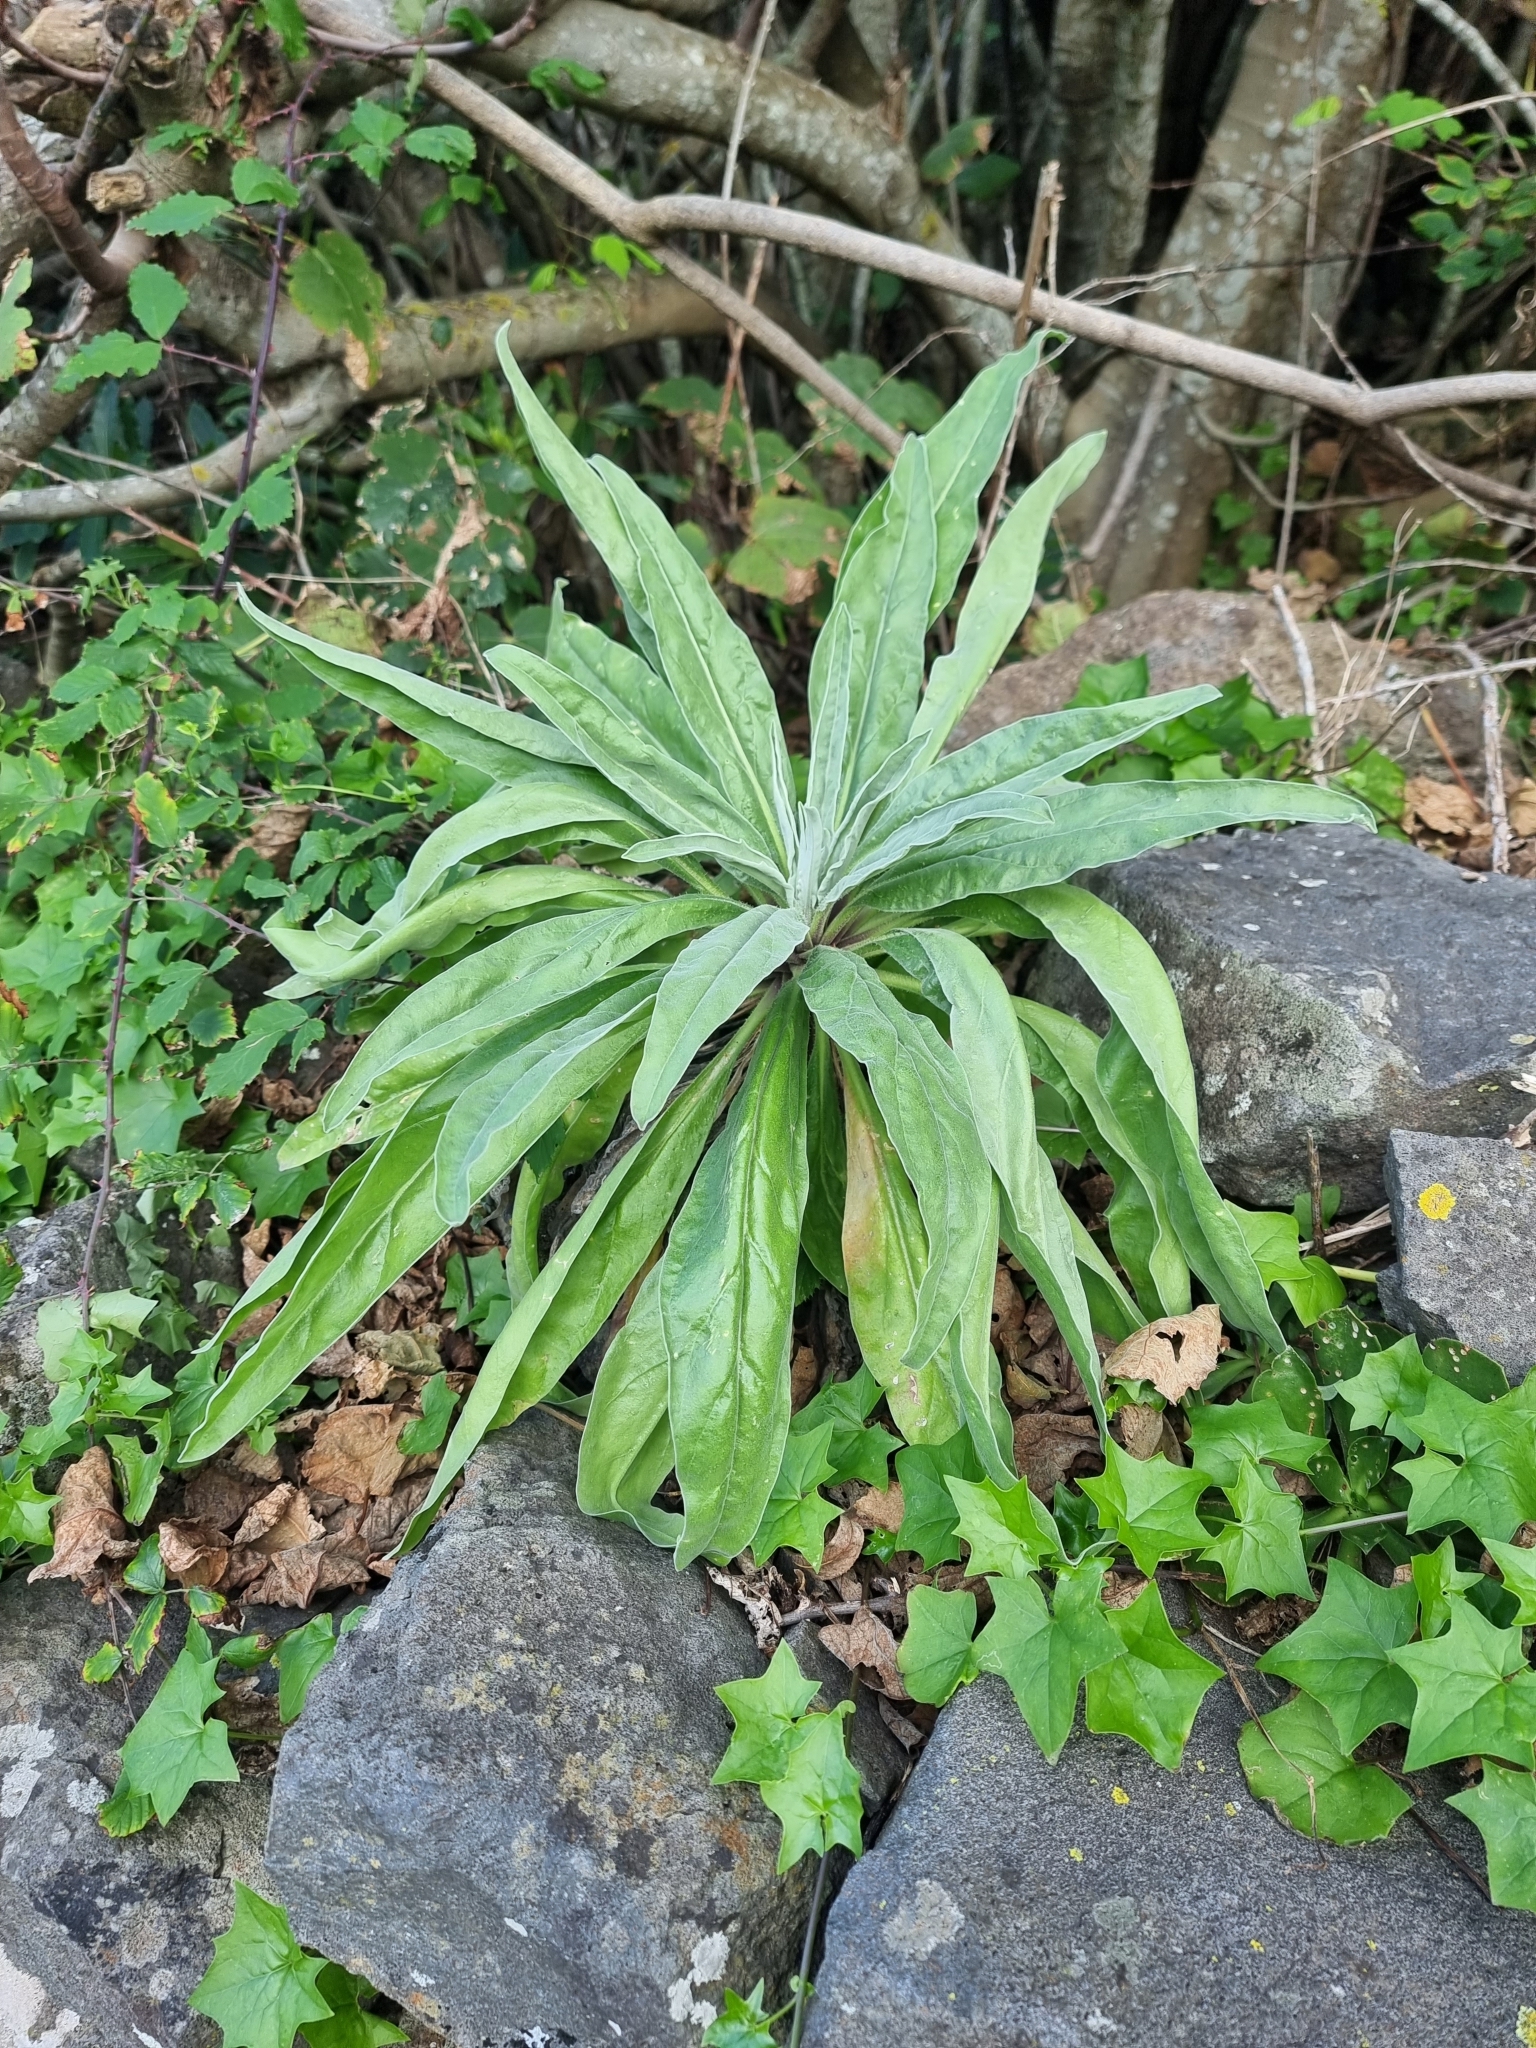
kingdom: Plantae
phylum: Tracheophyta
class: Magnoliopsida
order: Asterales
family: Asteraceae
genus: Andryala
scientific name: Andryala glandulosa
